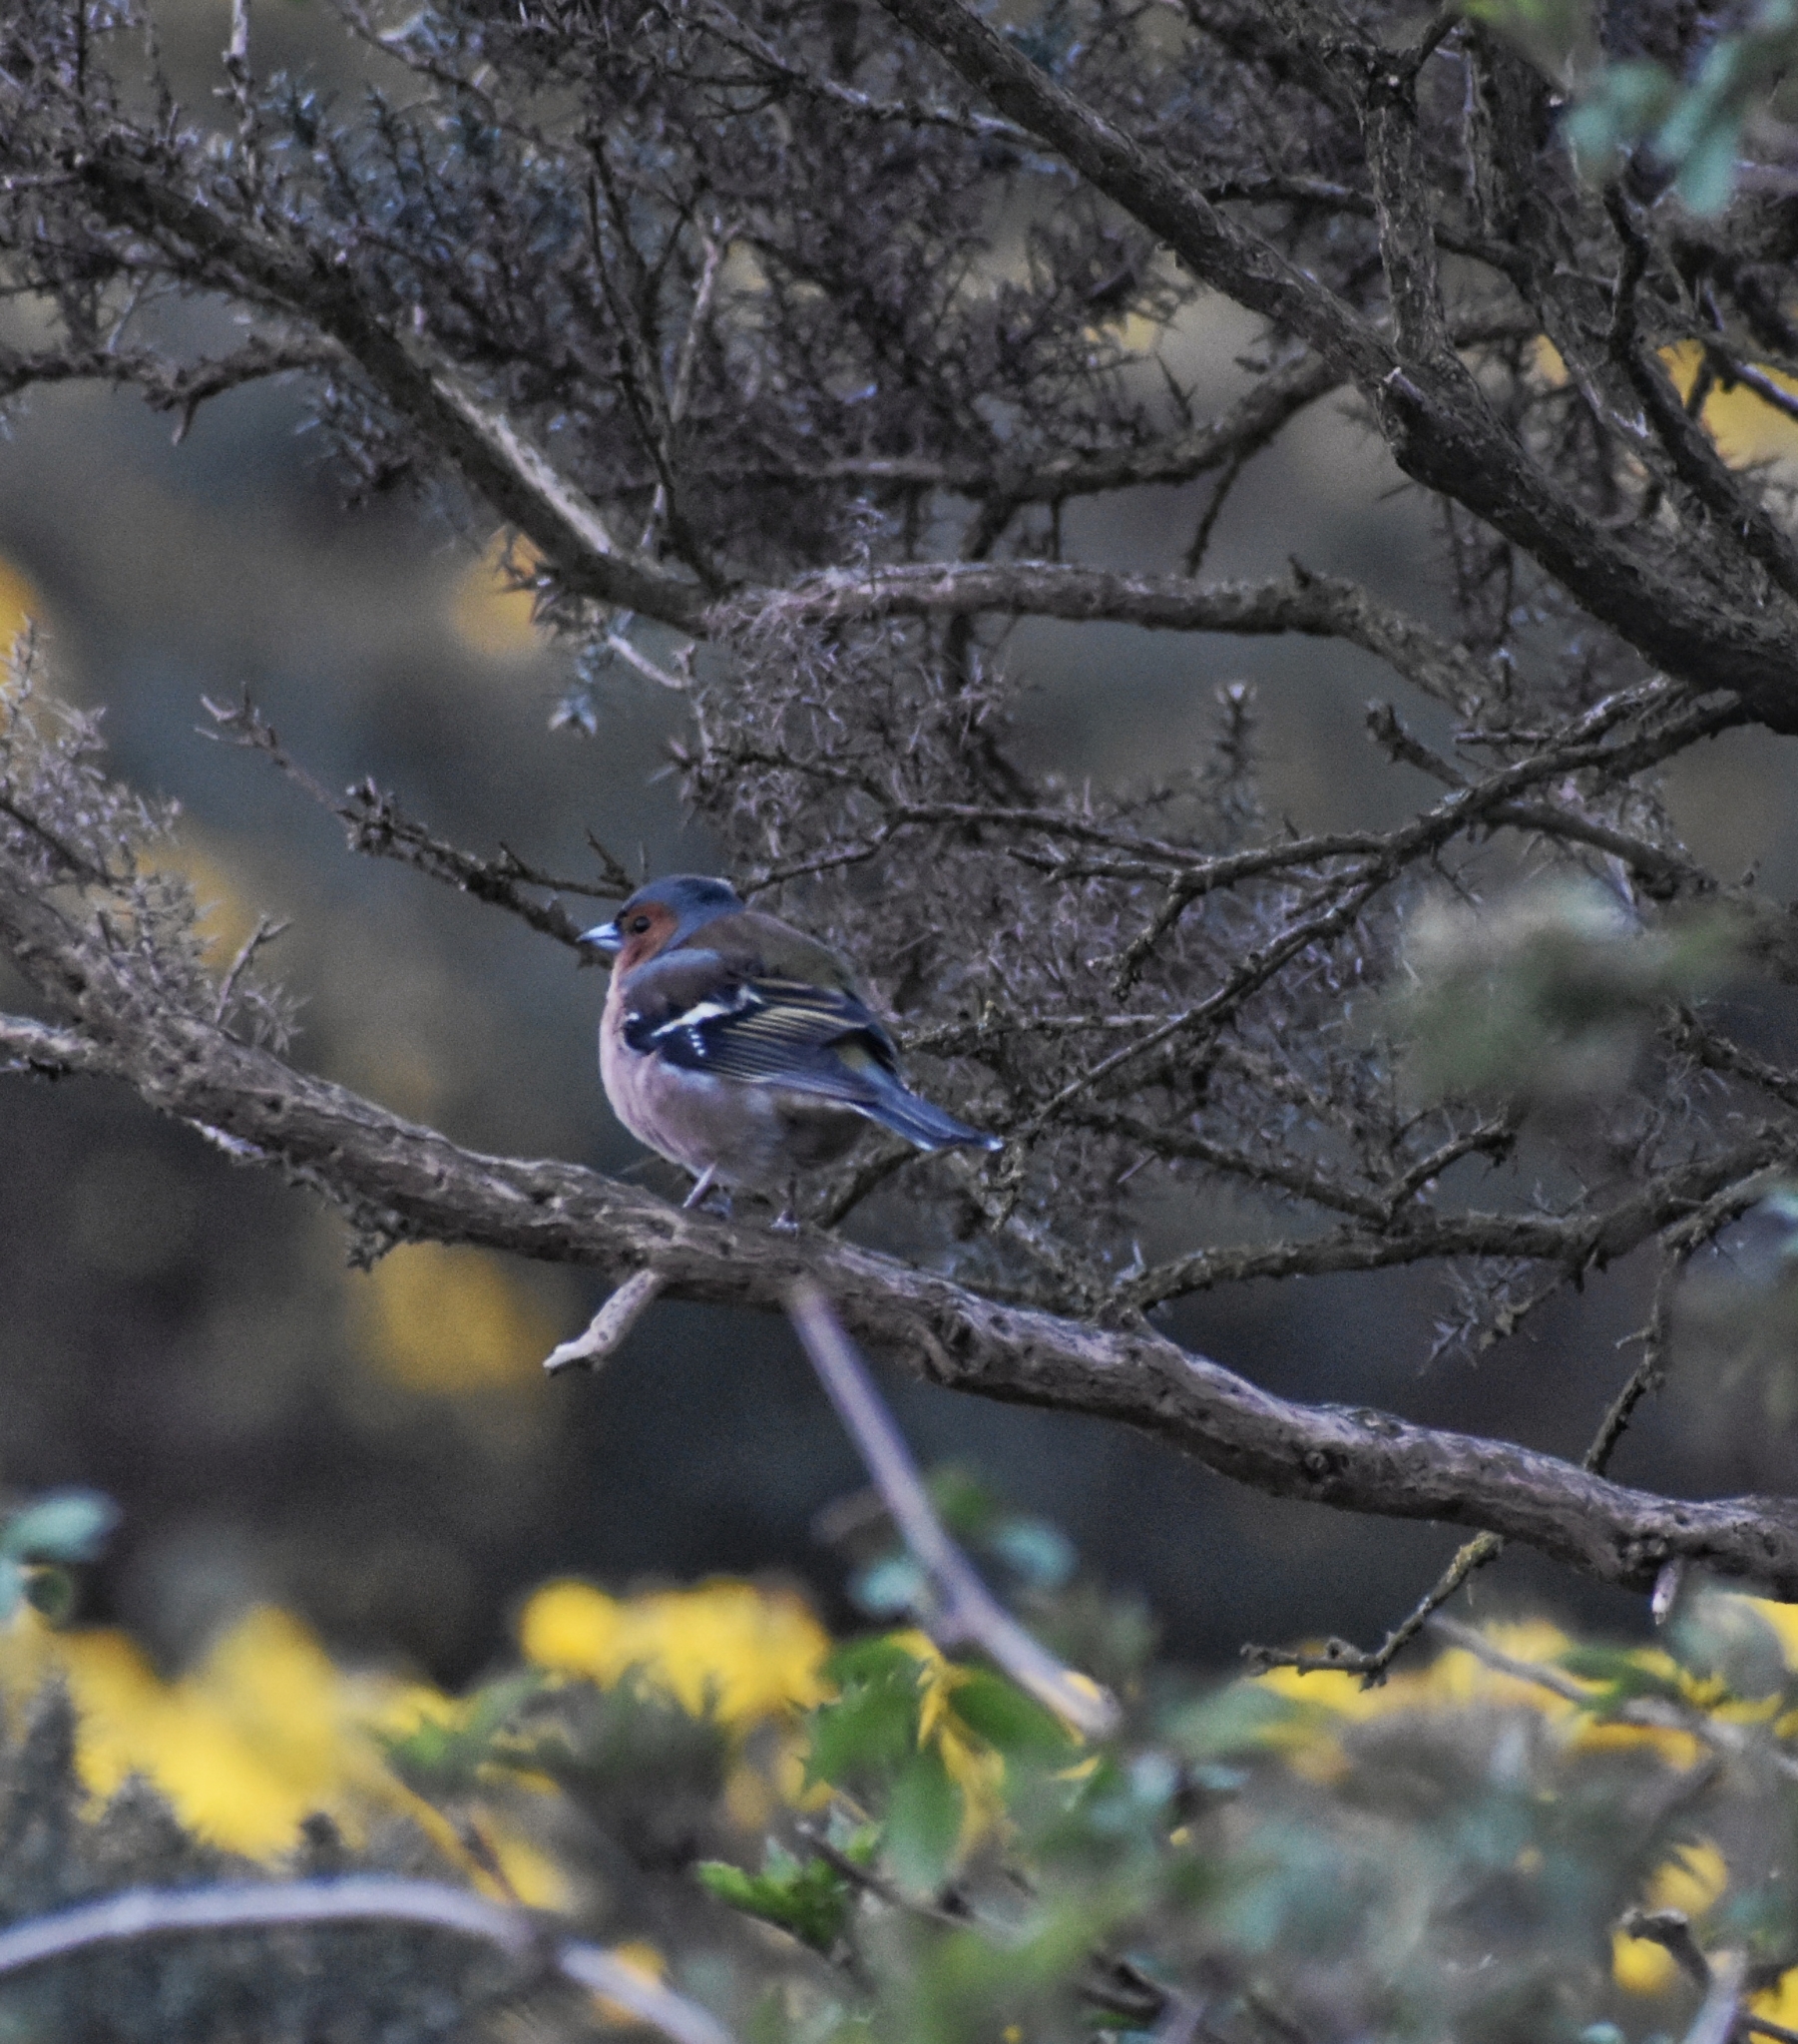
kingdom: Animalia
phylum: Chordata
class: Aves
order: Passeriformes
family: Fringillidae
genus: Fringilla
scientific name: Fringilla coelebs
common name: Common chaffinch
